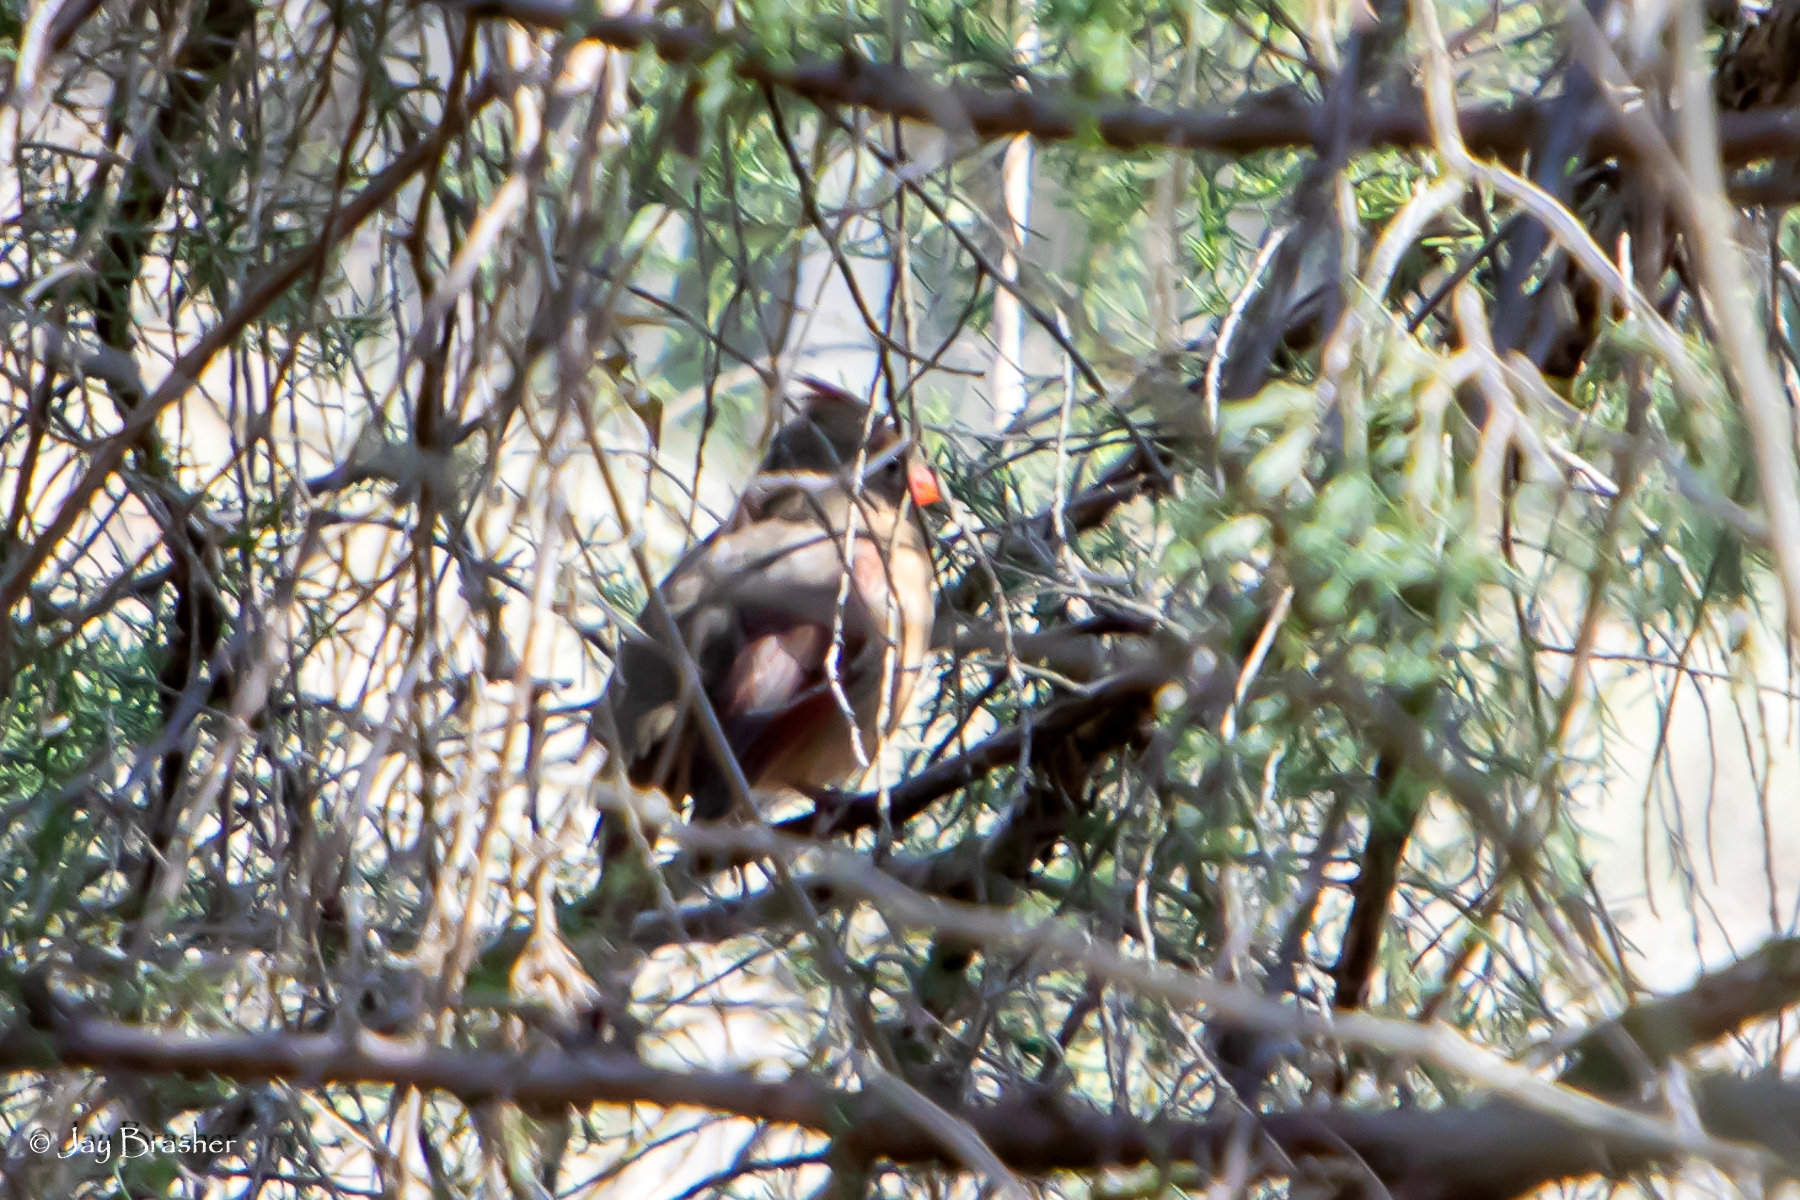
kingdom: Animalia
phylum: Chordata
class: Aves
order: Passeriformes
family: Cardinalidae
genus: Cardinalis
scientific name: Cardinalis cardinalis
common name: Northern cardinal
